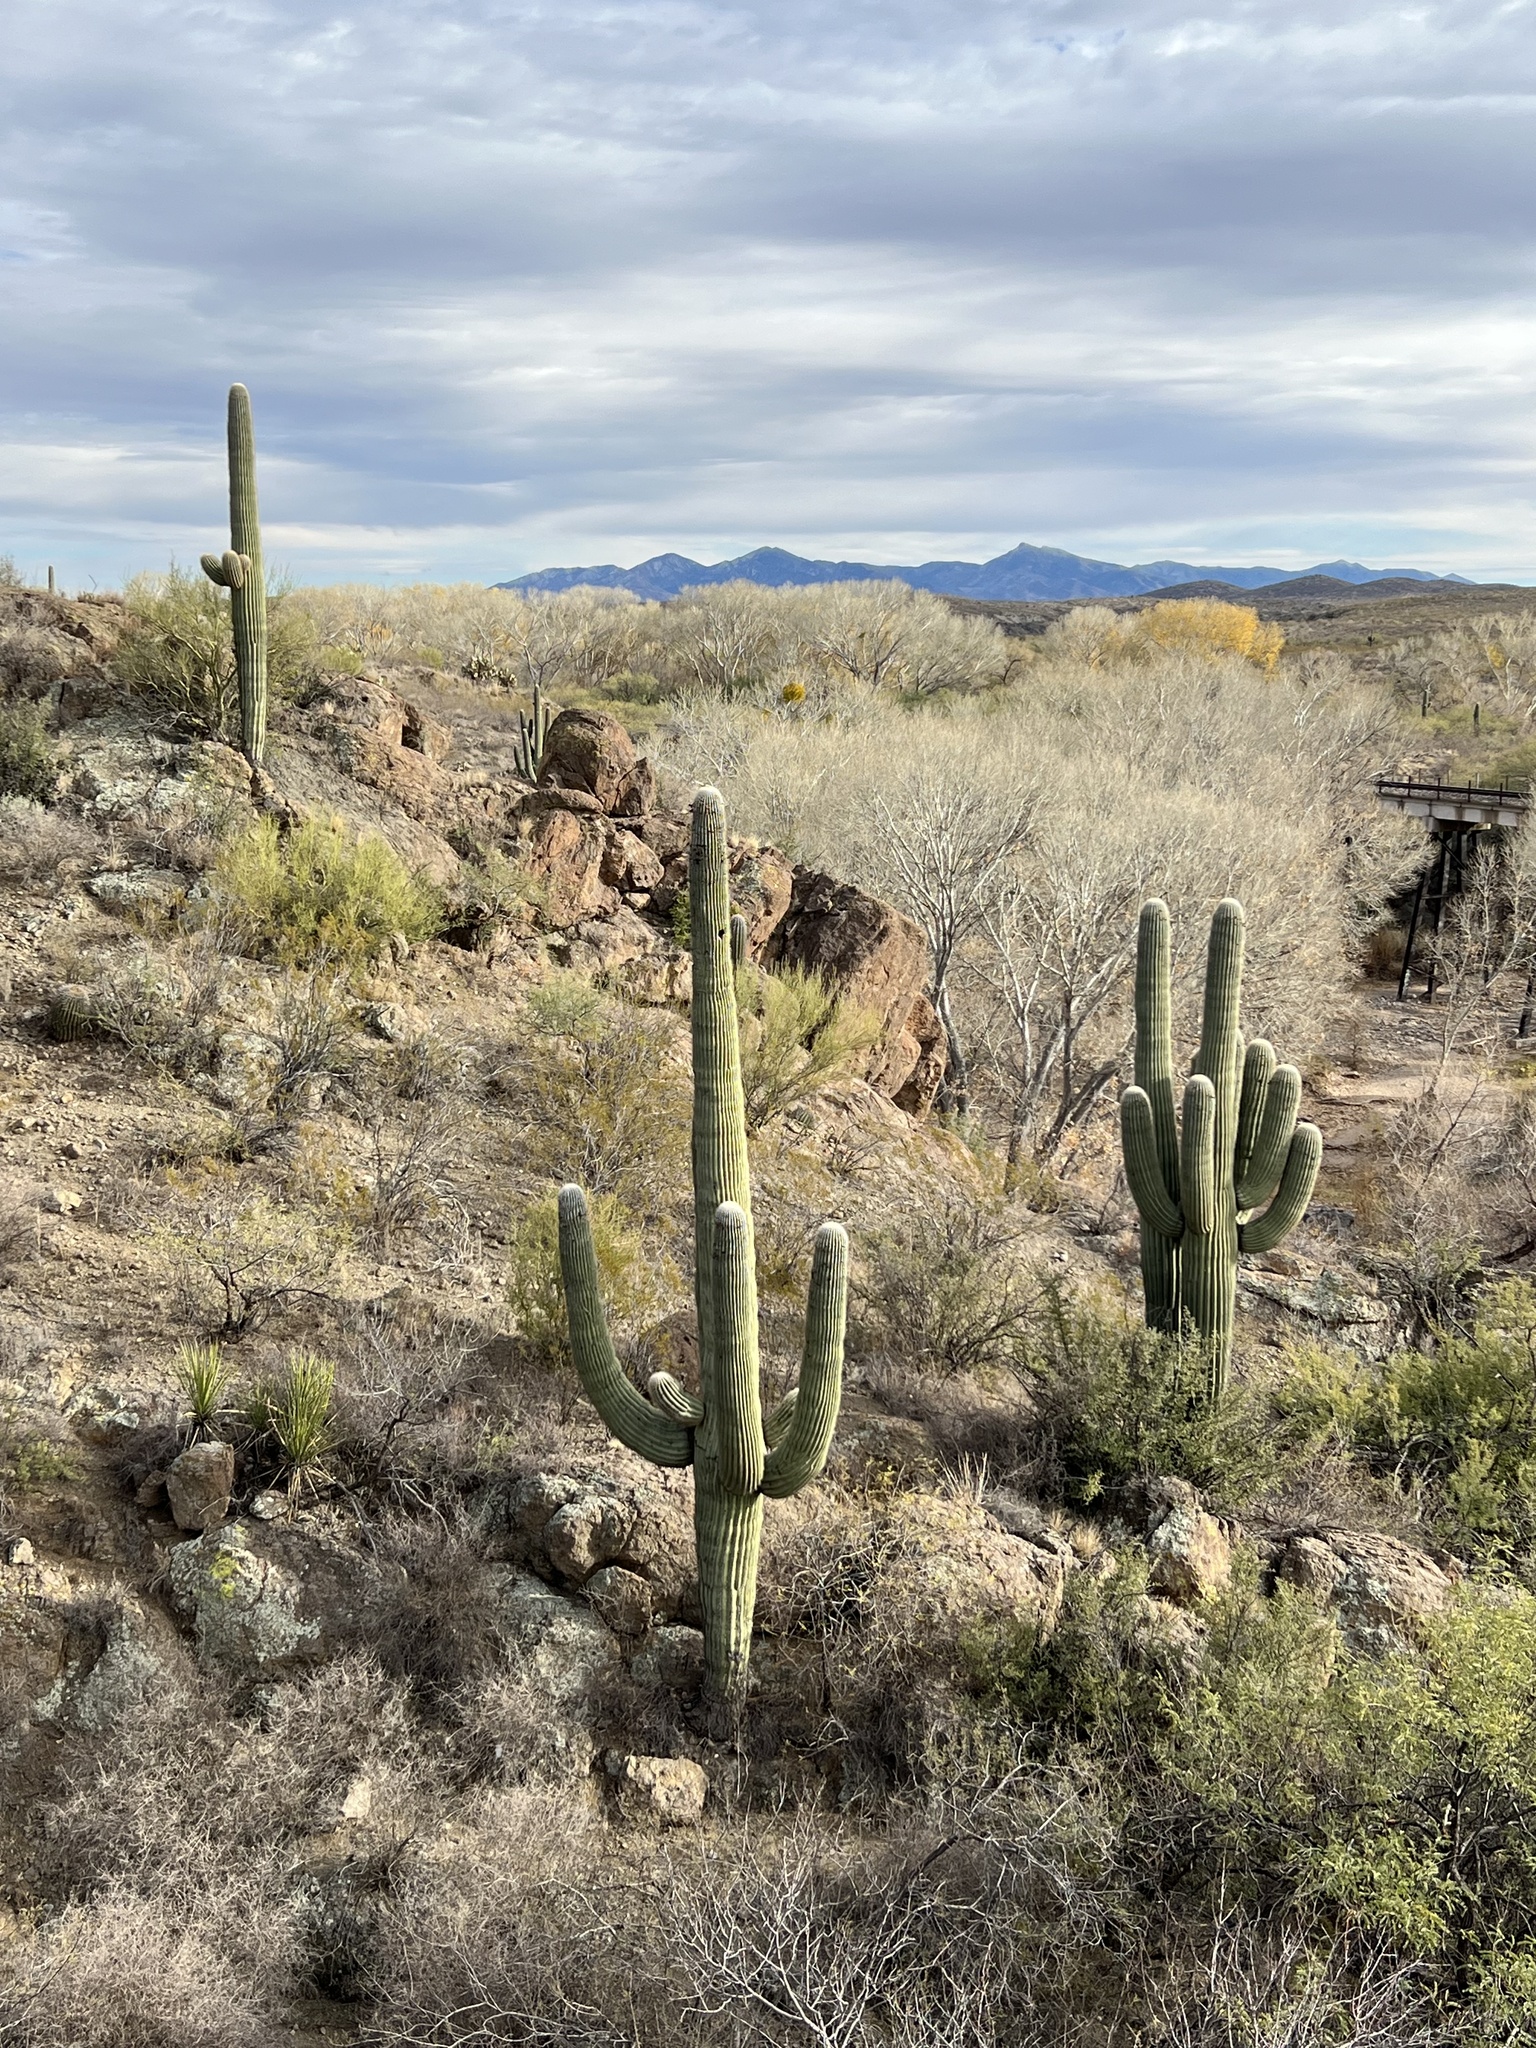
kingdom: Plantae
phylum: Tracheophyta
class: Magnoliopsida
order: Caryophyllales
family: Cactaceae
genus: Carnegiea
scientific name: Carnegiea gigantea
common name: Saguaro
